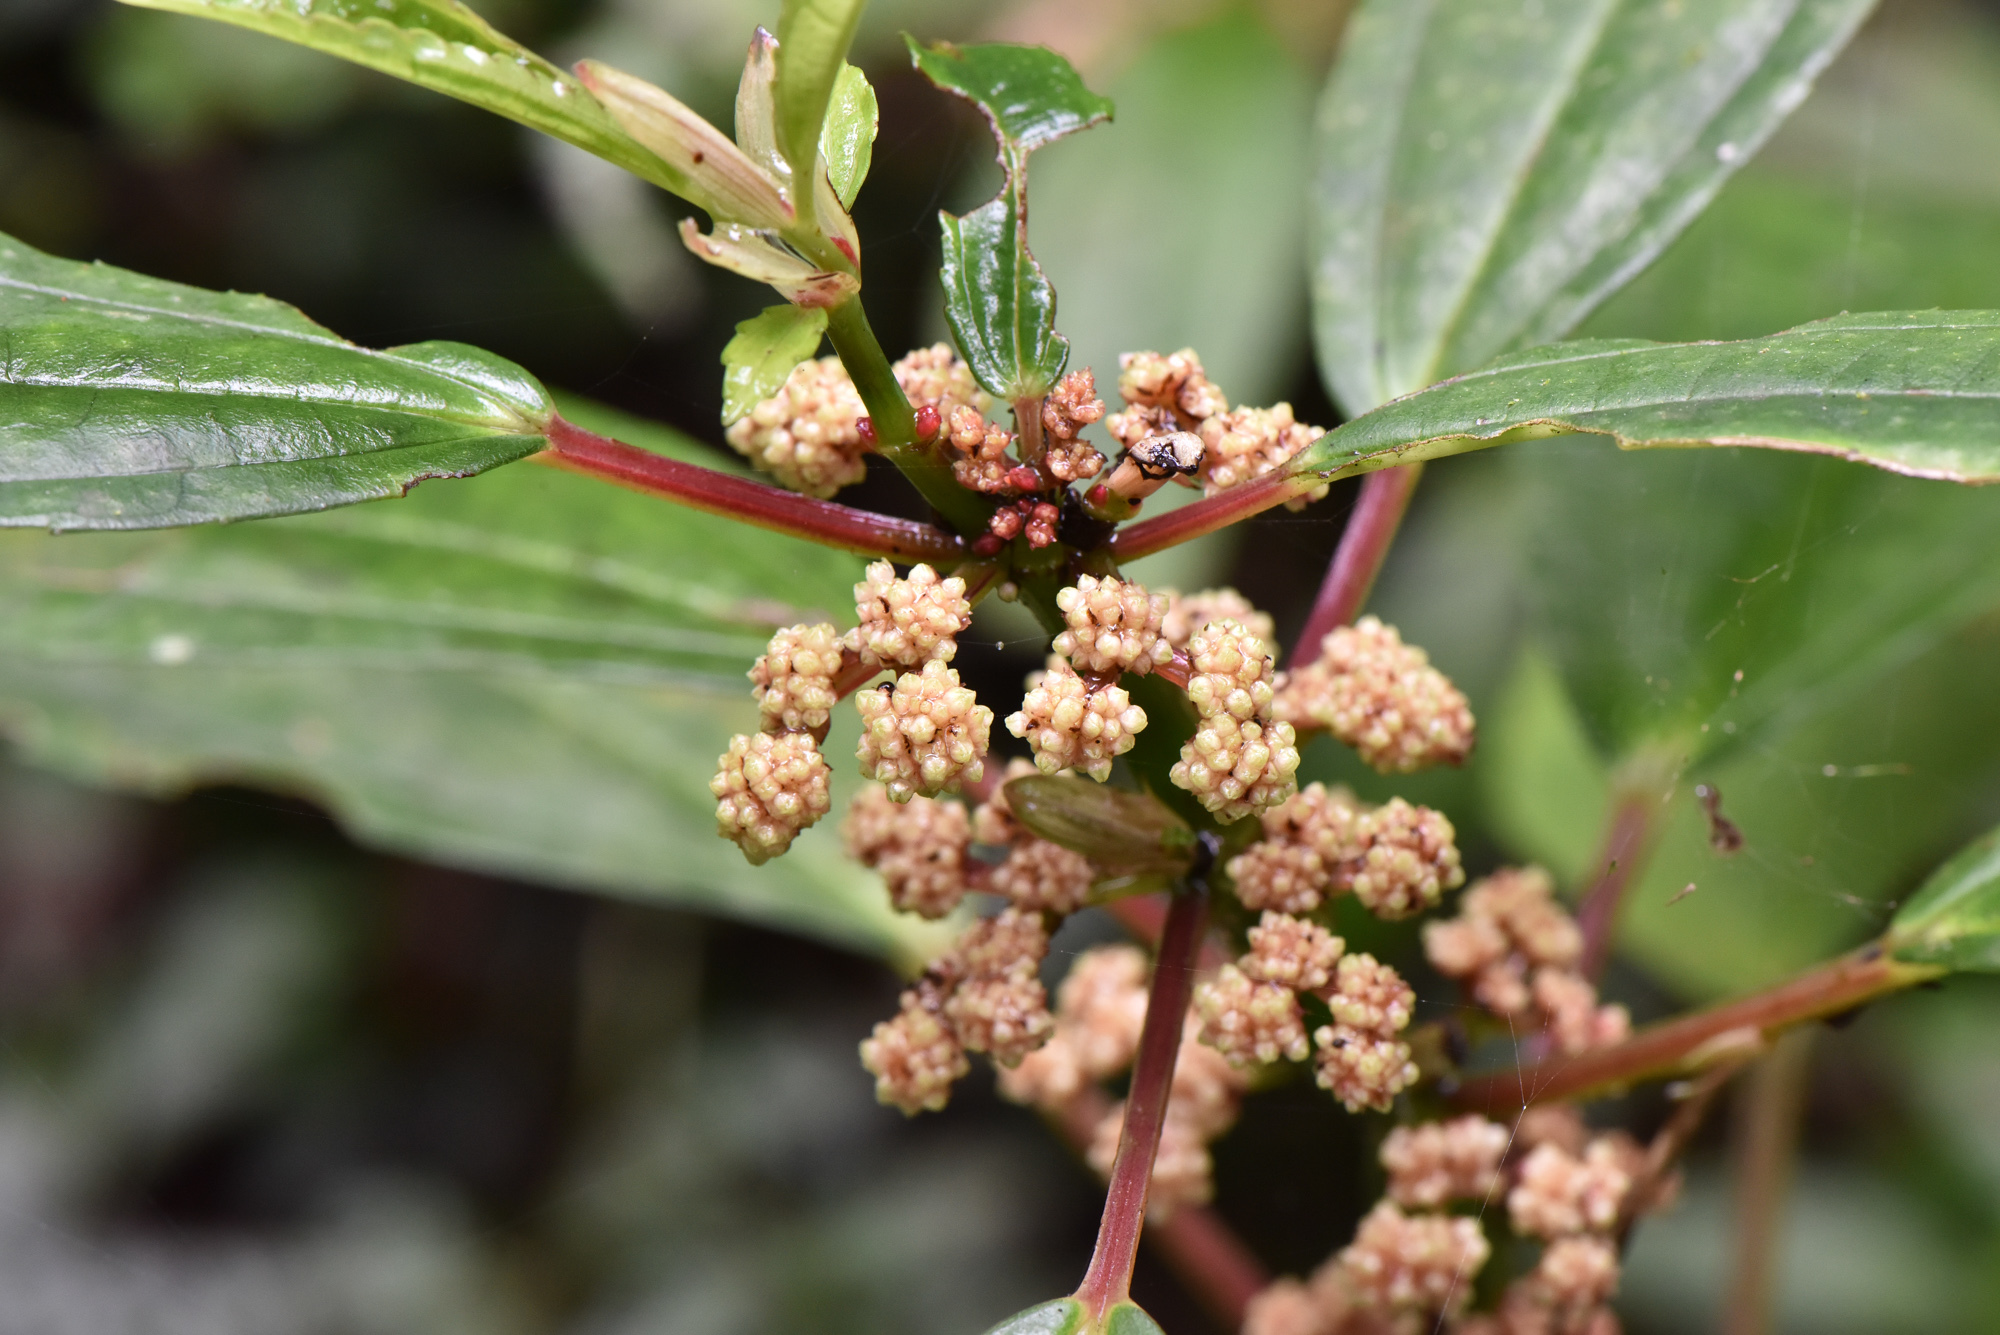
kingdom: Plantae
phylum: Tracheophyta
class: Magnoliopsida
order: Rosales
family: Urticaceae
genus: Pilea
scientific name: Pilea funkikensis
